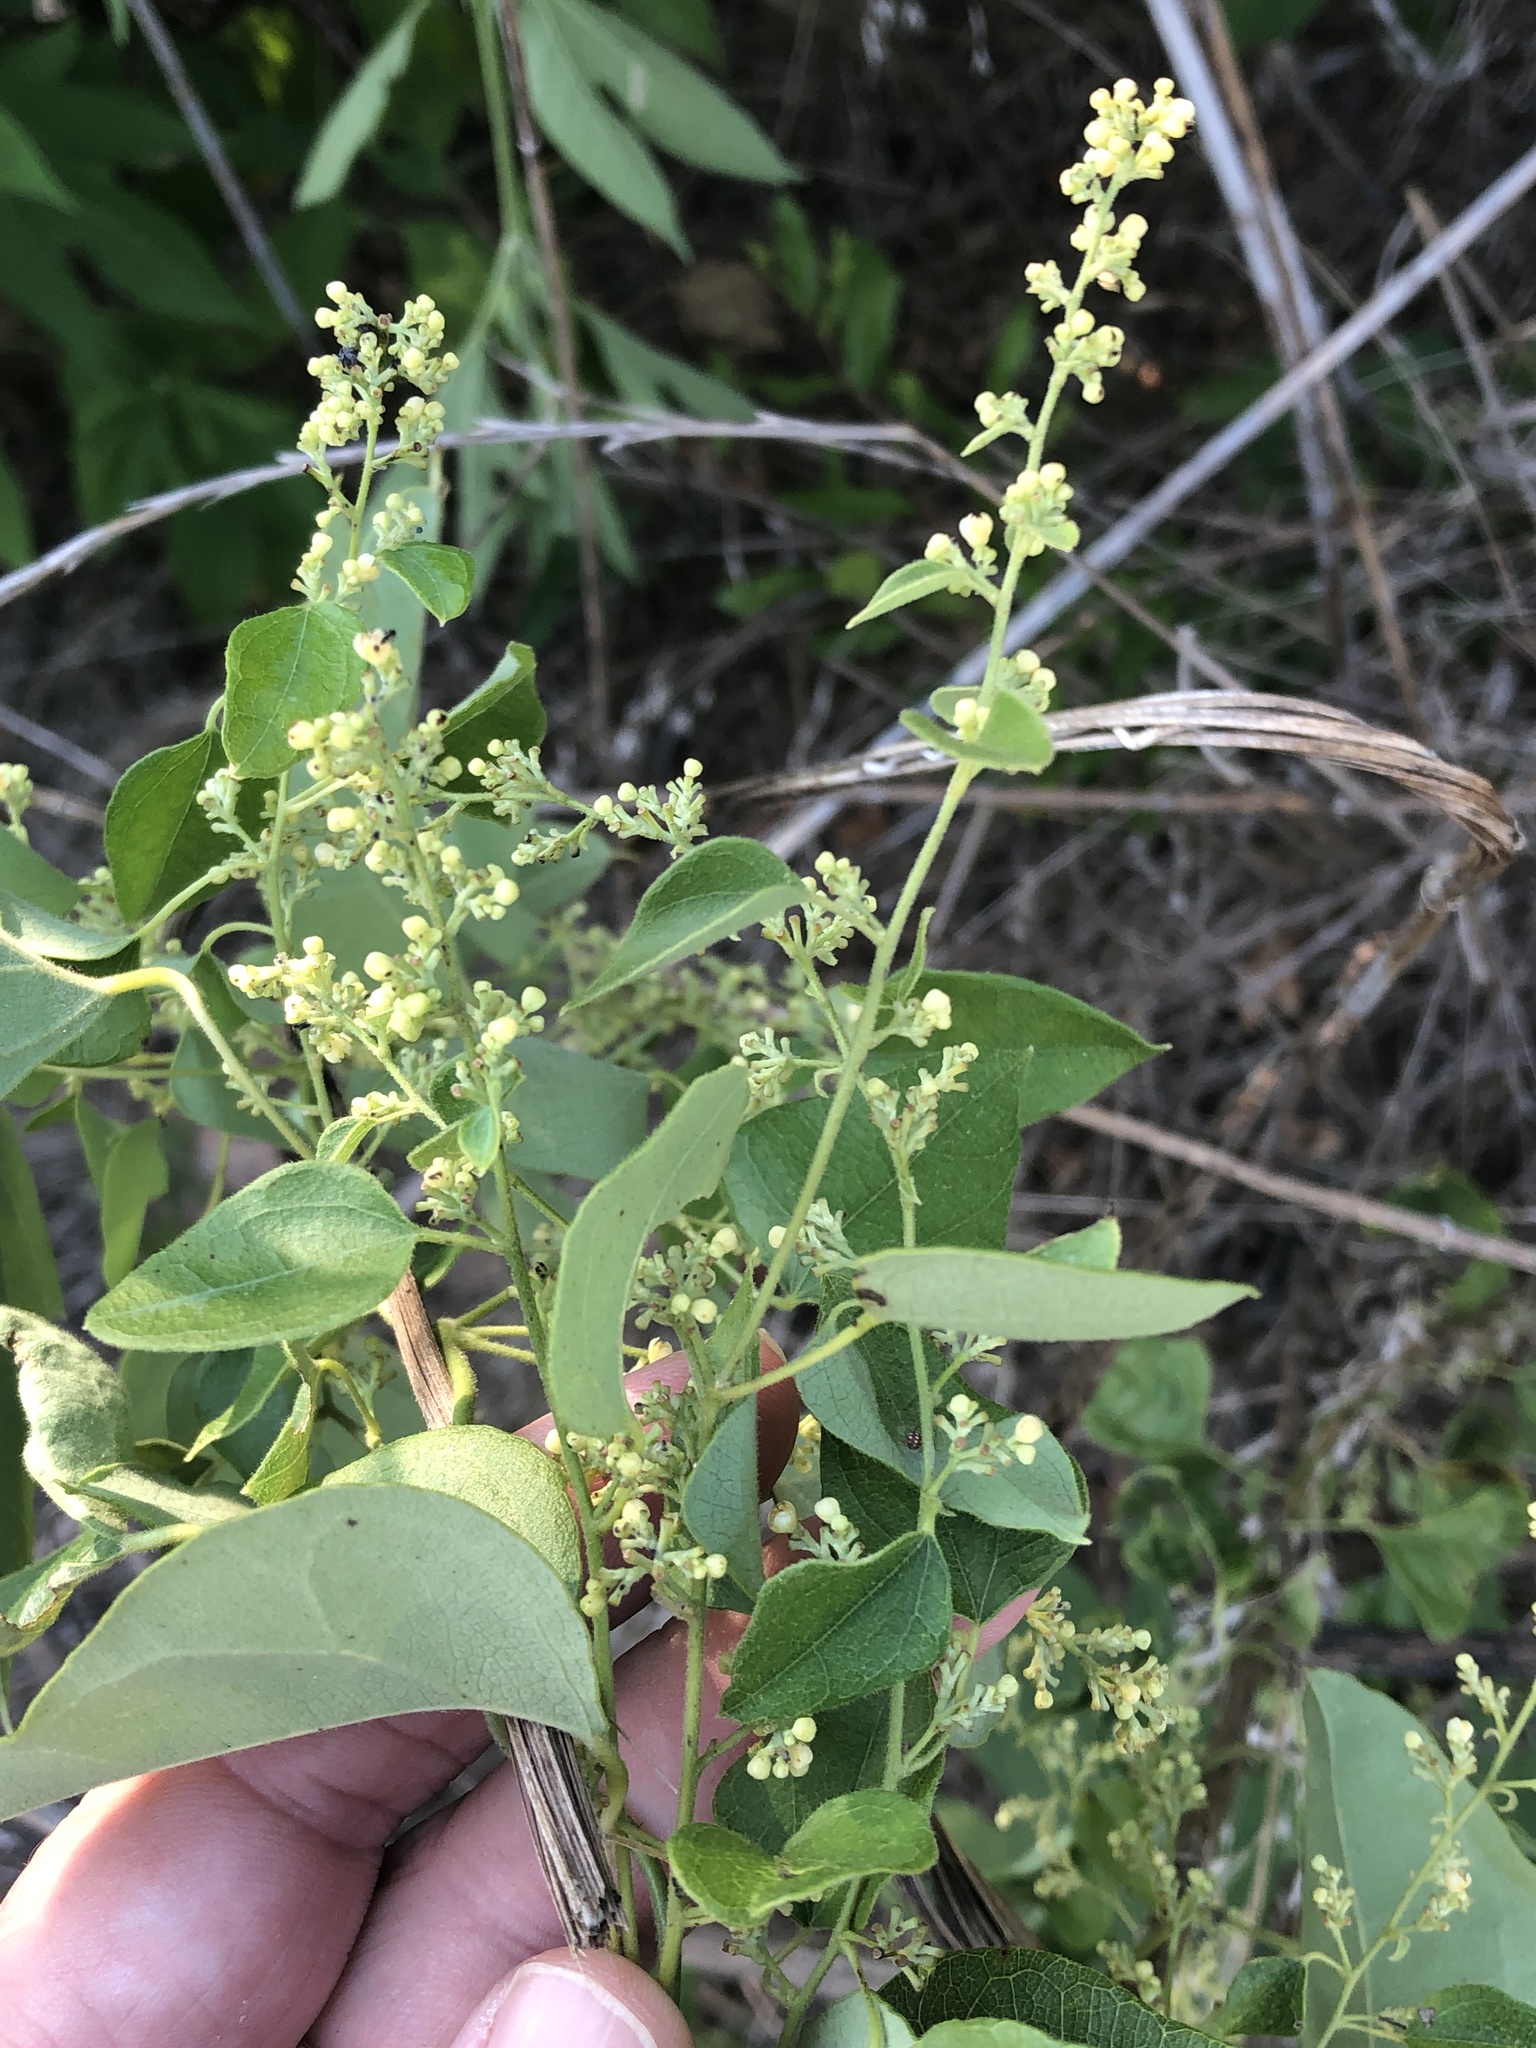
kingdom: Plantae
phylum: Tracheophyta
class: Magnoliopsida
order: Ranunculales
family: Menispermaceae
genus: Cocculus
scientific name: Cocculus carolinus
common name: Carolina moonseed
